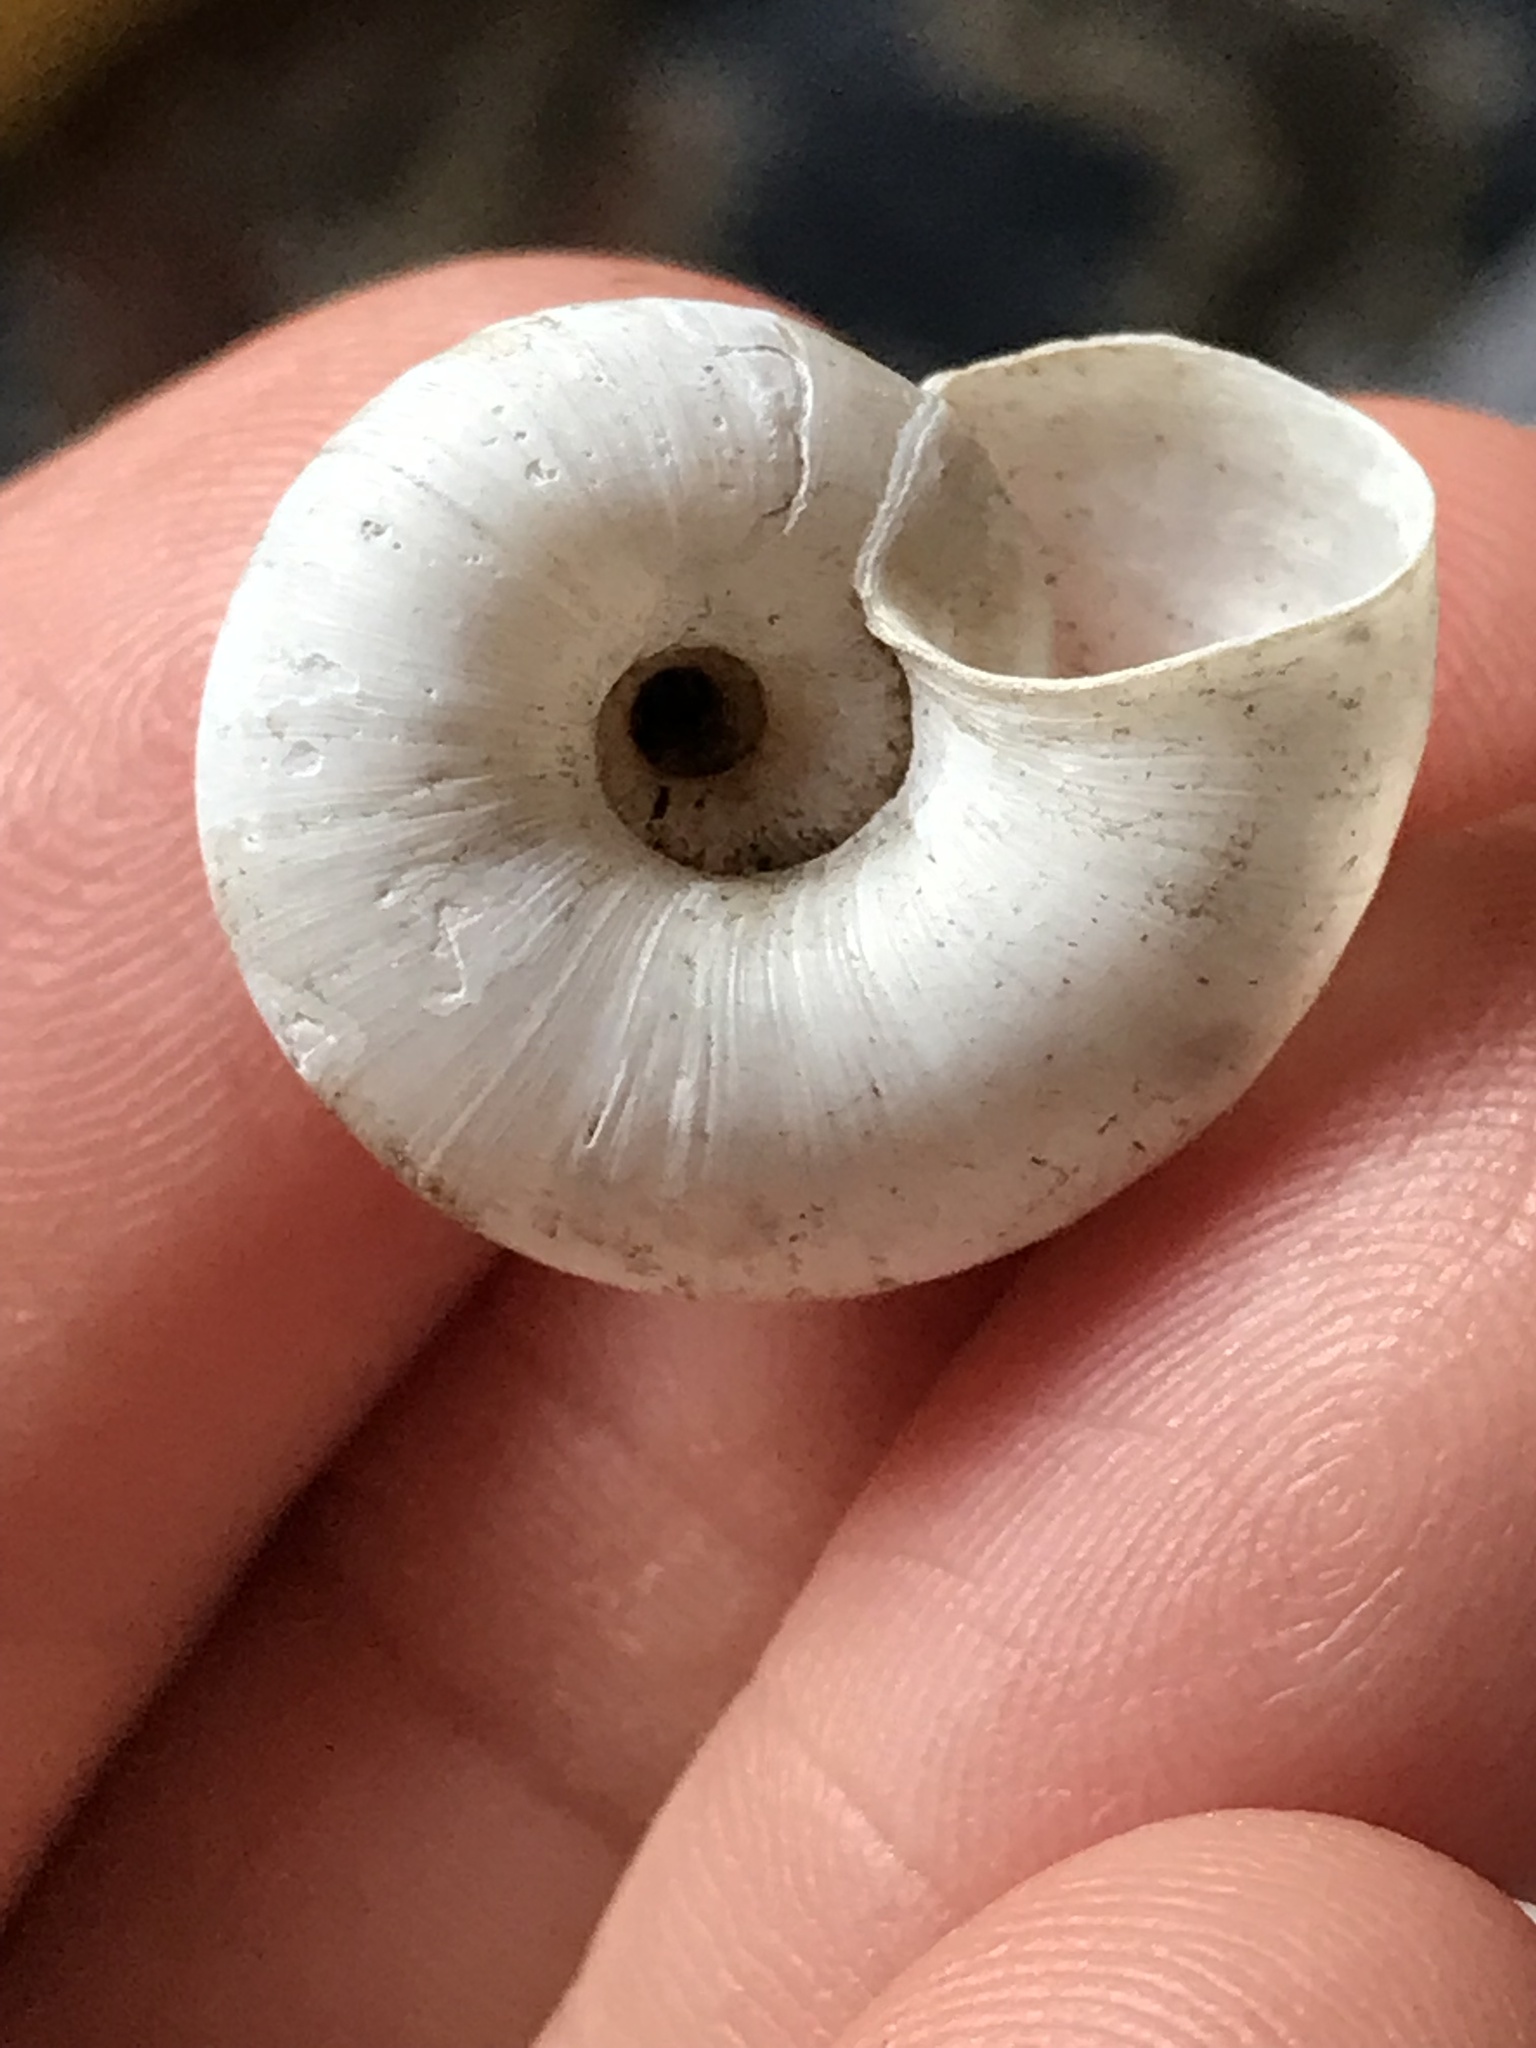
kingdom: Animalia
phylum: Mollusca
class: Gastropoda
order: Stylommatophora
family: Haplotrematidae
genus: Haplotrema
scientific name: Haplotrema minimum
